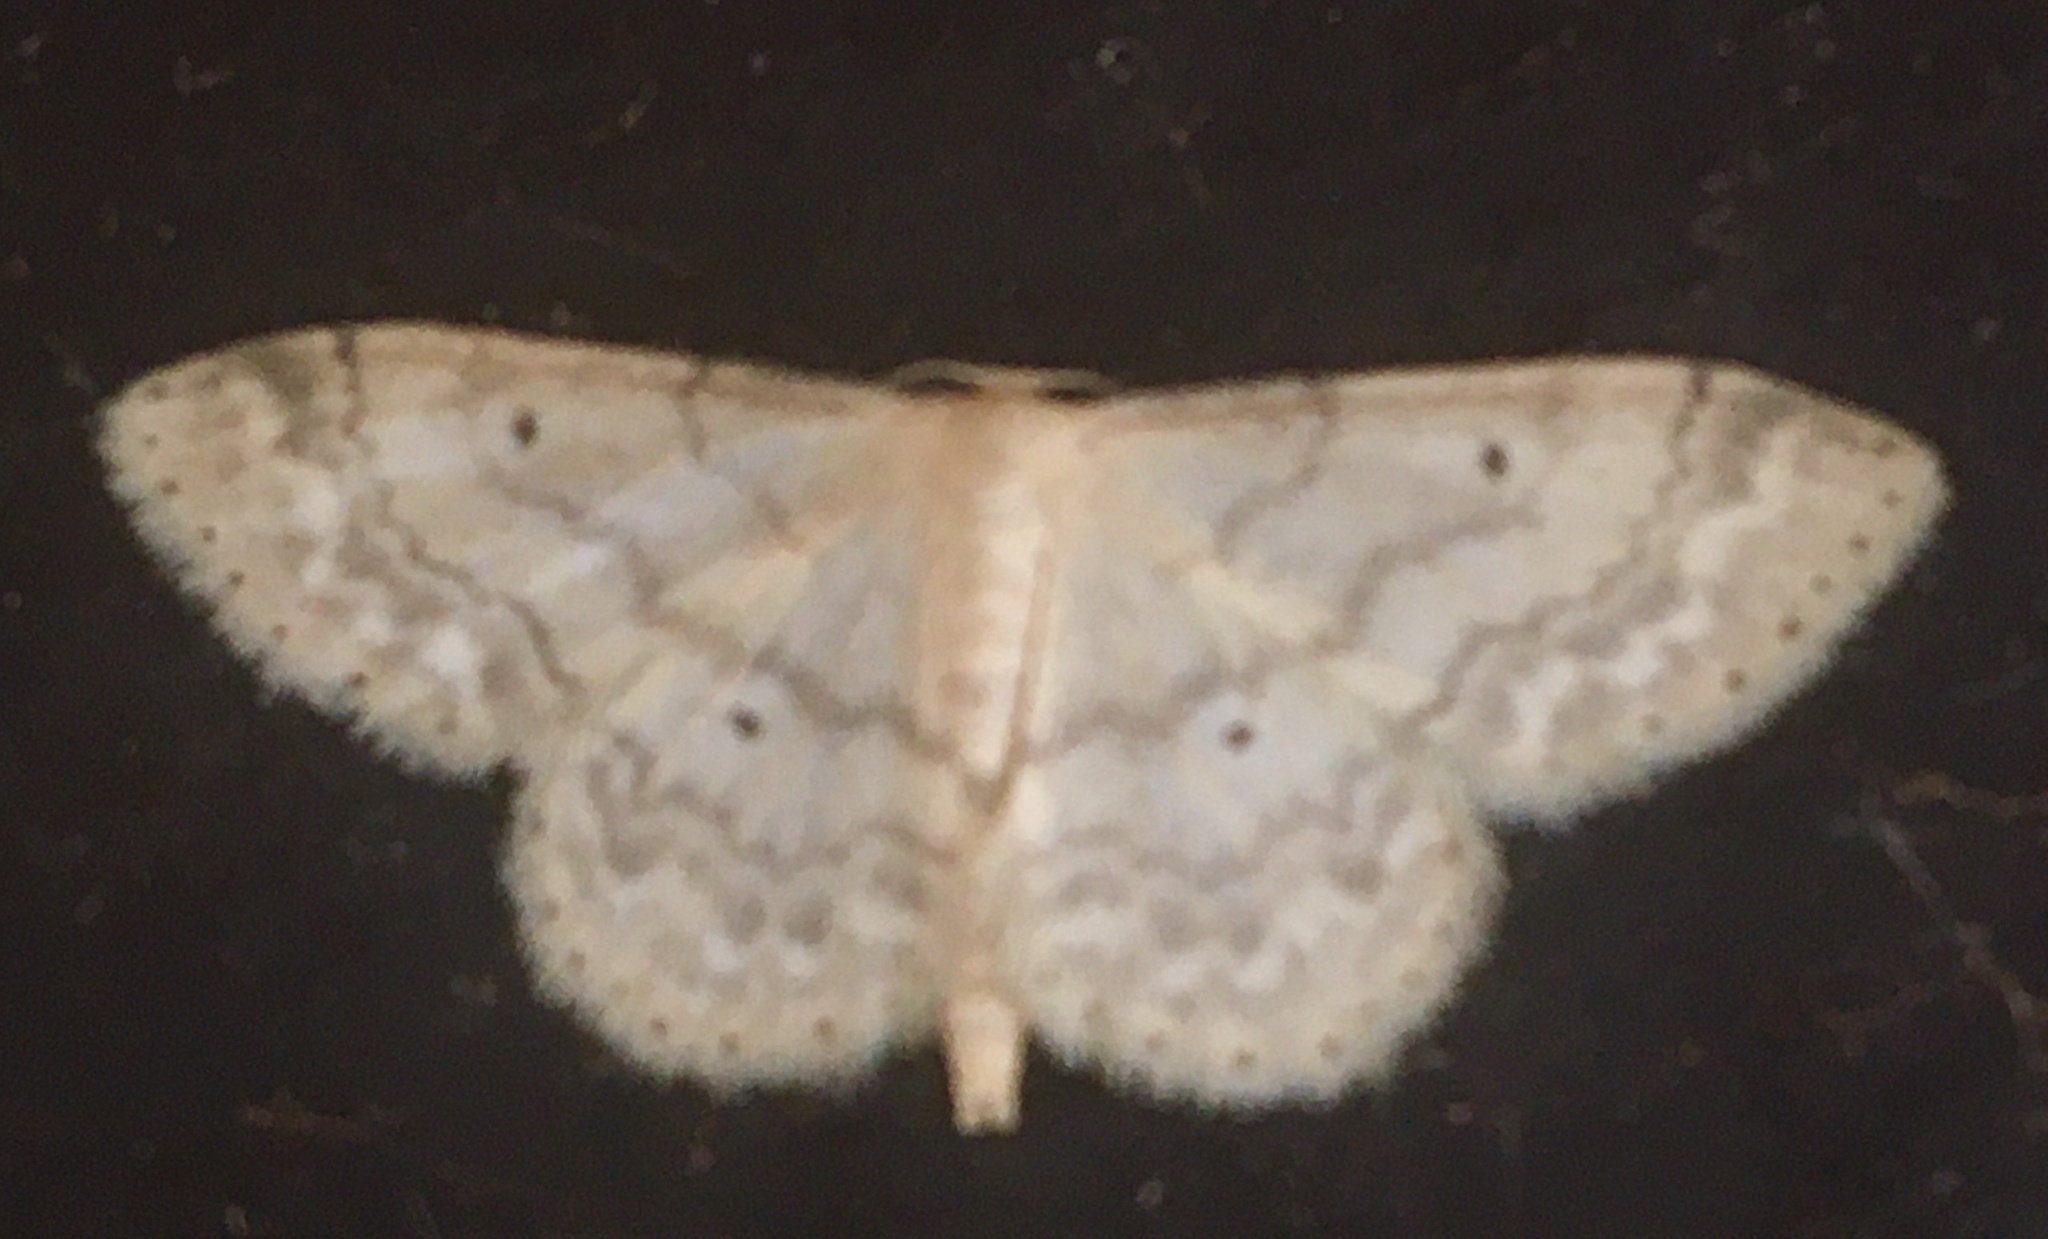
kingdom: Animalia
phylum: Arthropoda
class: Insecta
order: Lepidoptera
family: Geometridae
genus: Idaea
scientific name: Idaea biselata
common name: Small fan-footed wave
